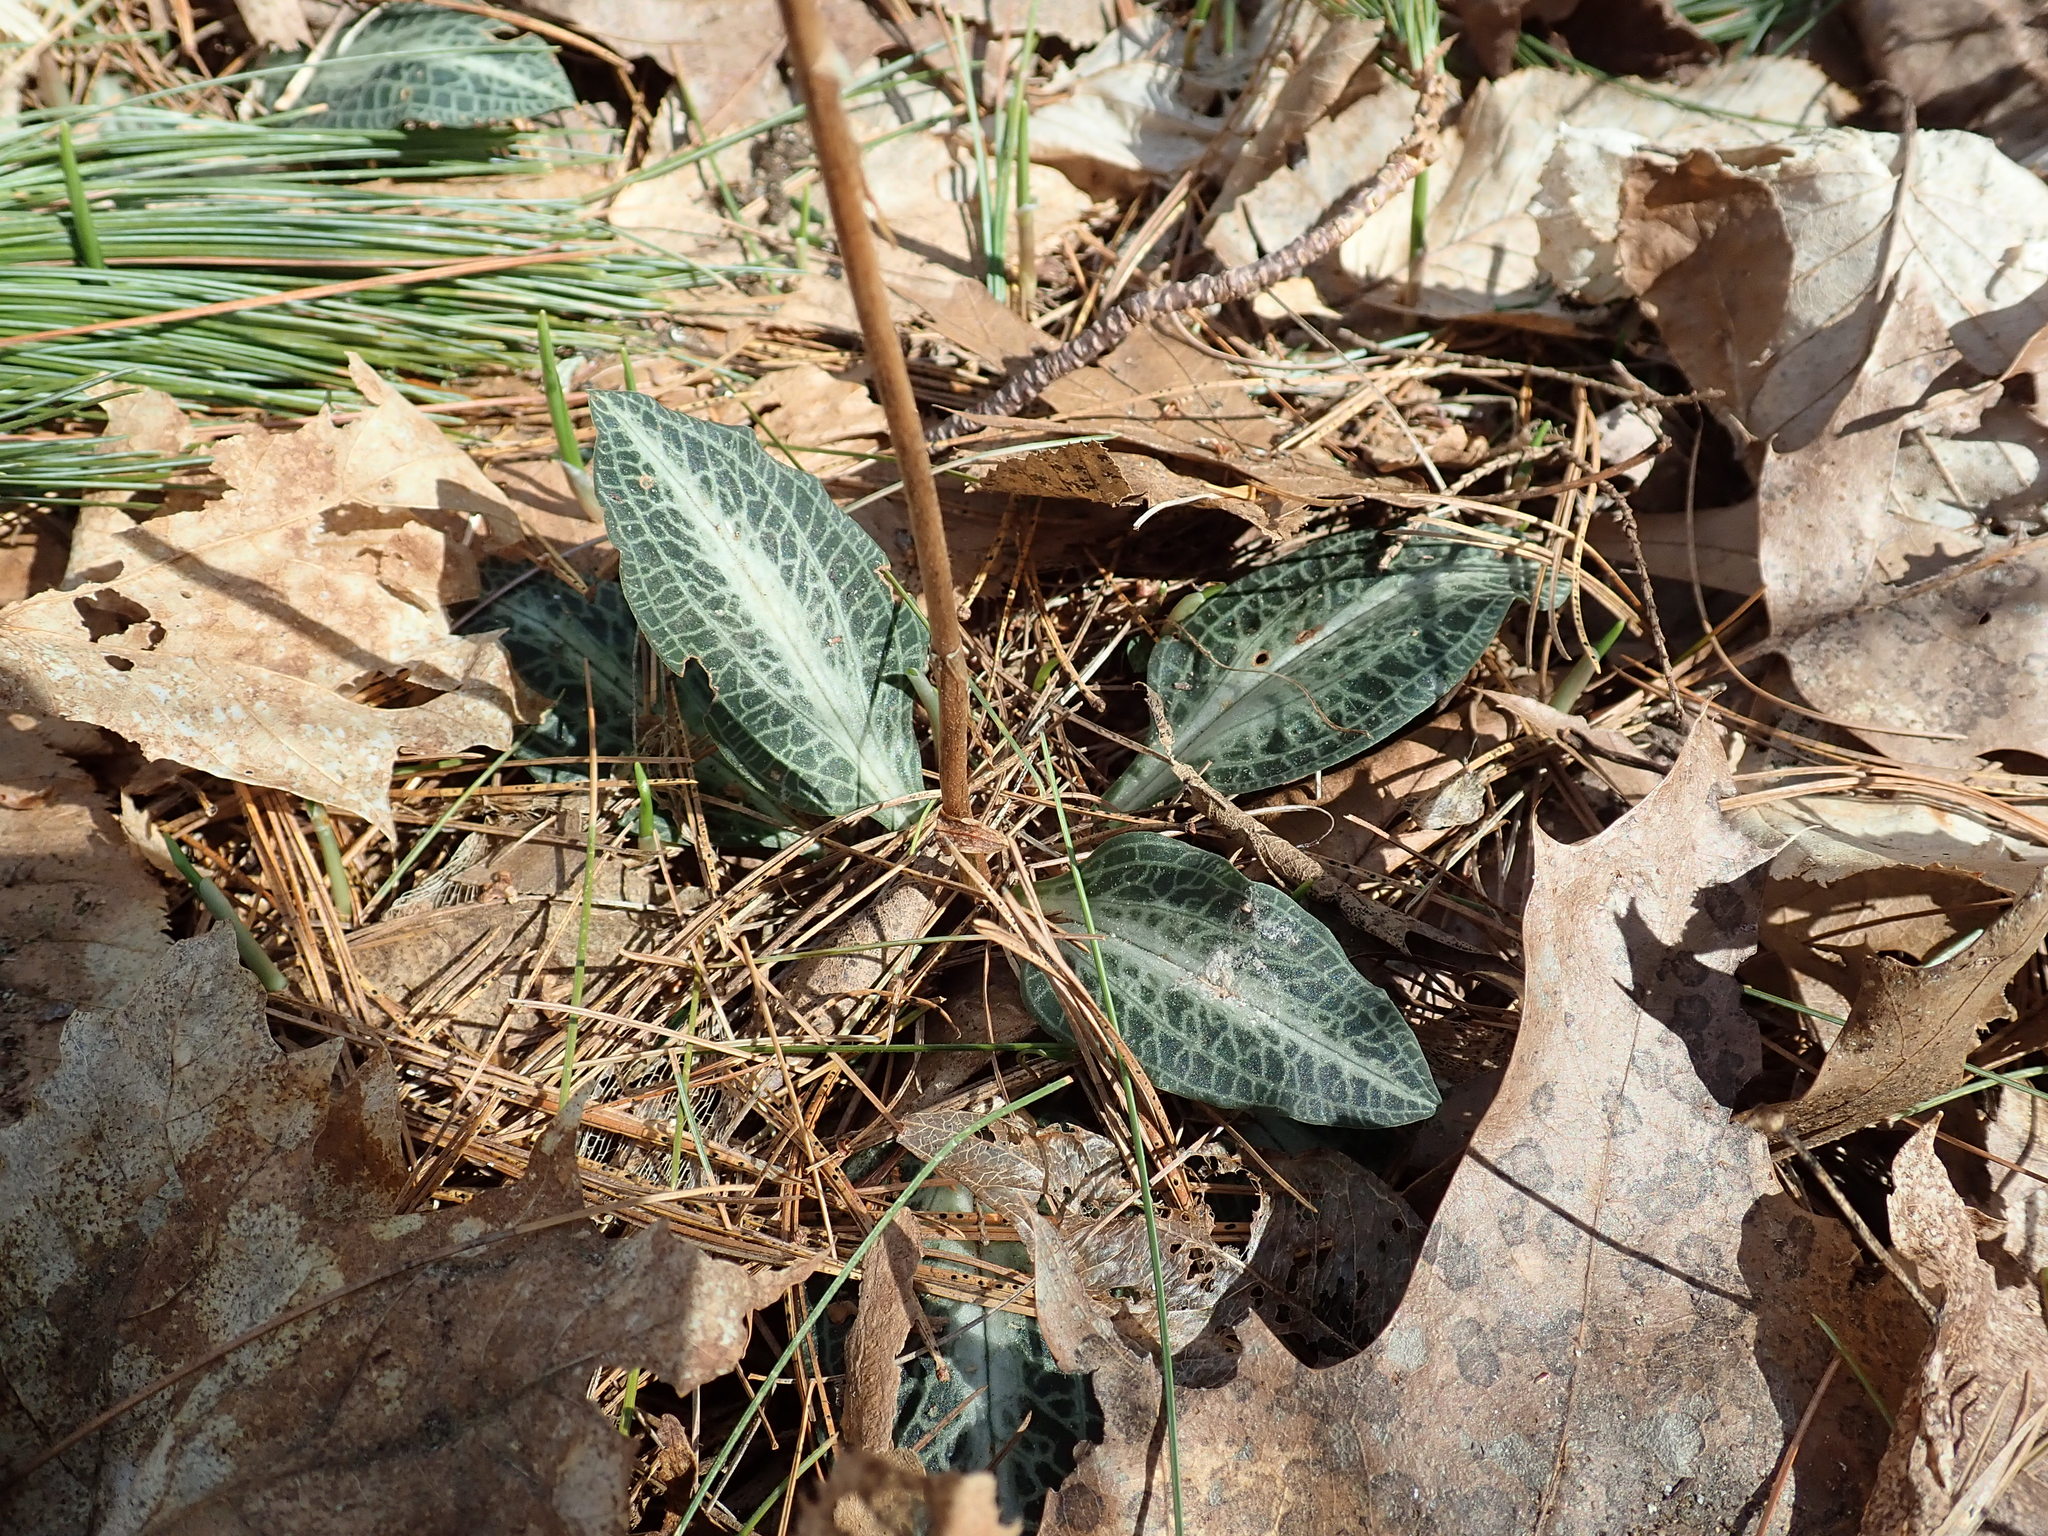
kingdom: Plantae
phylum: Tracheophyta
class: Liliopsida
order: Asparagales
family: Orchidaceae
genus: Goodyera
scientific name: Goodyera pubescens
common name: Downy rattlesnake-plantain
